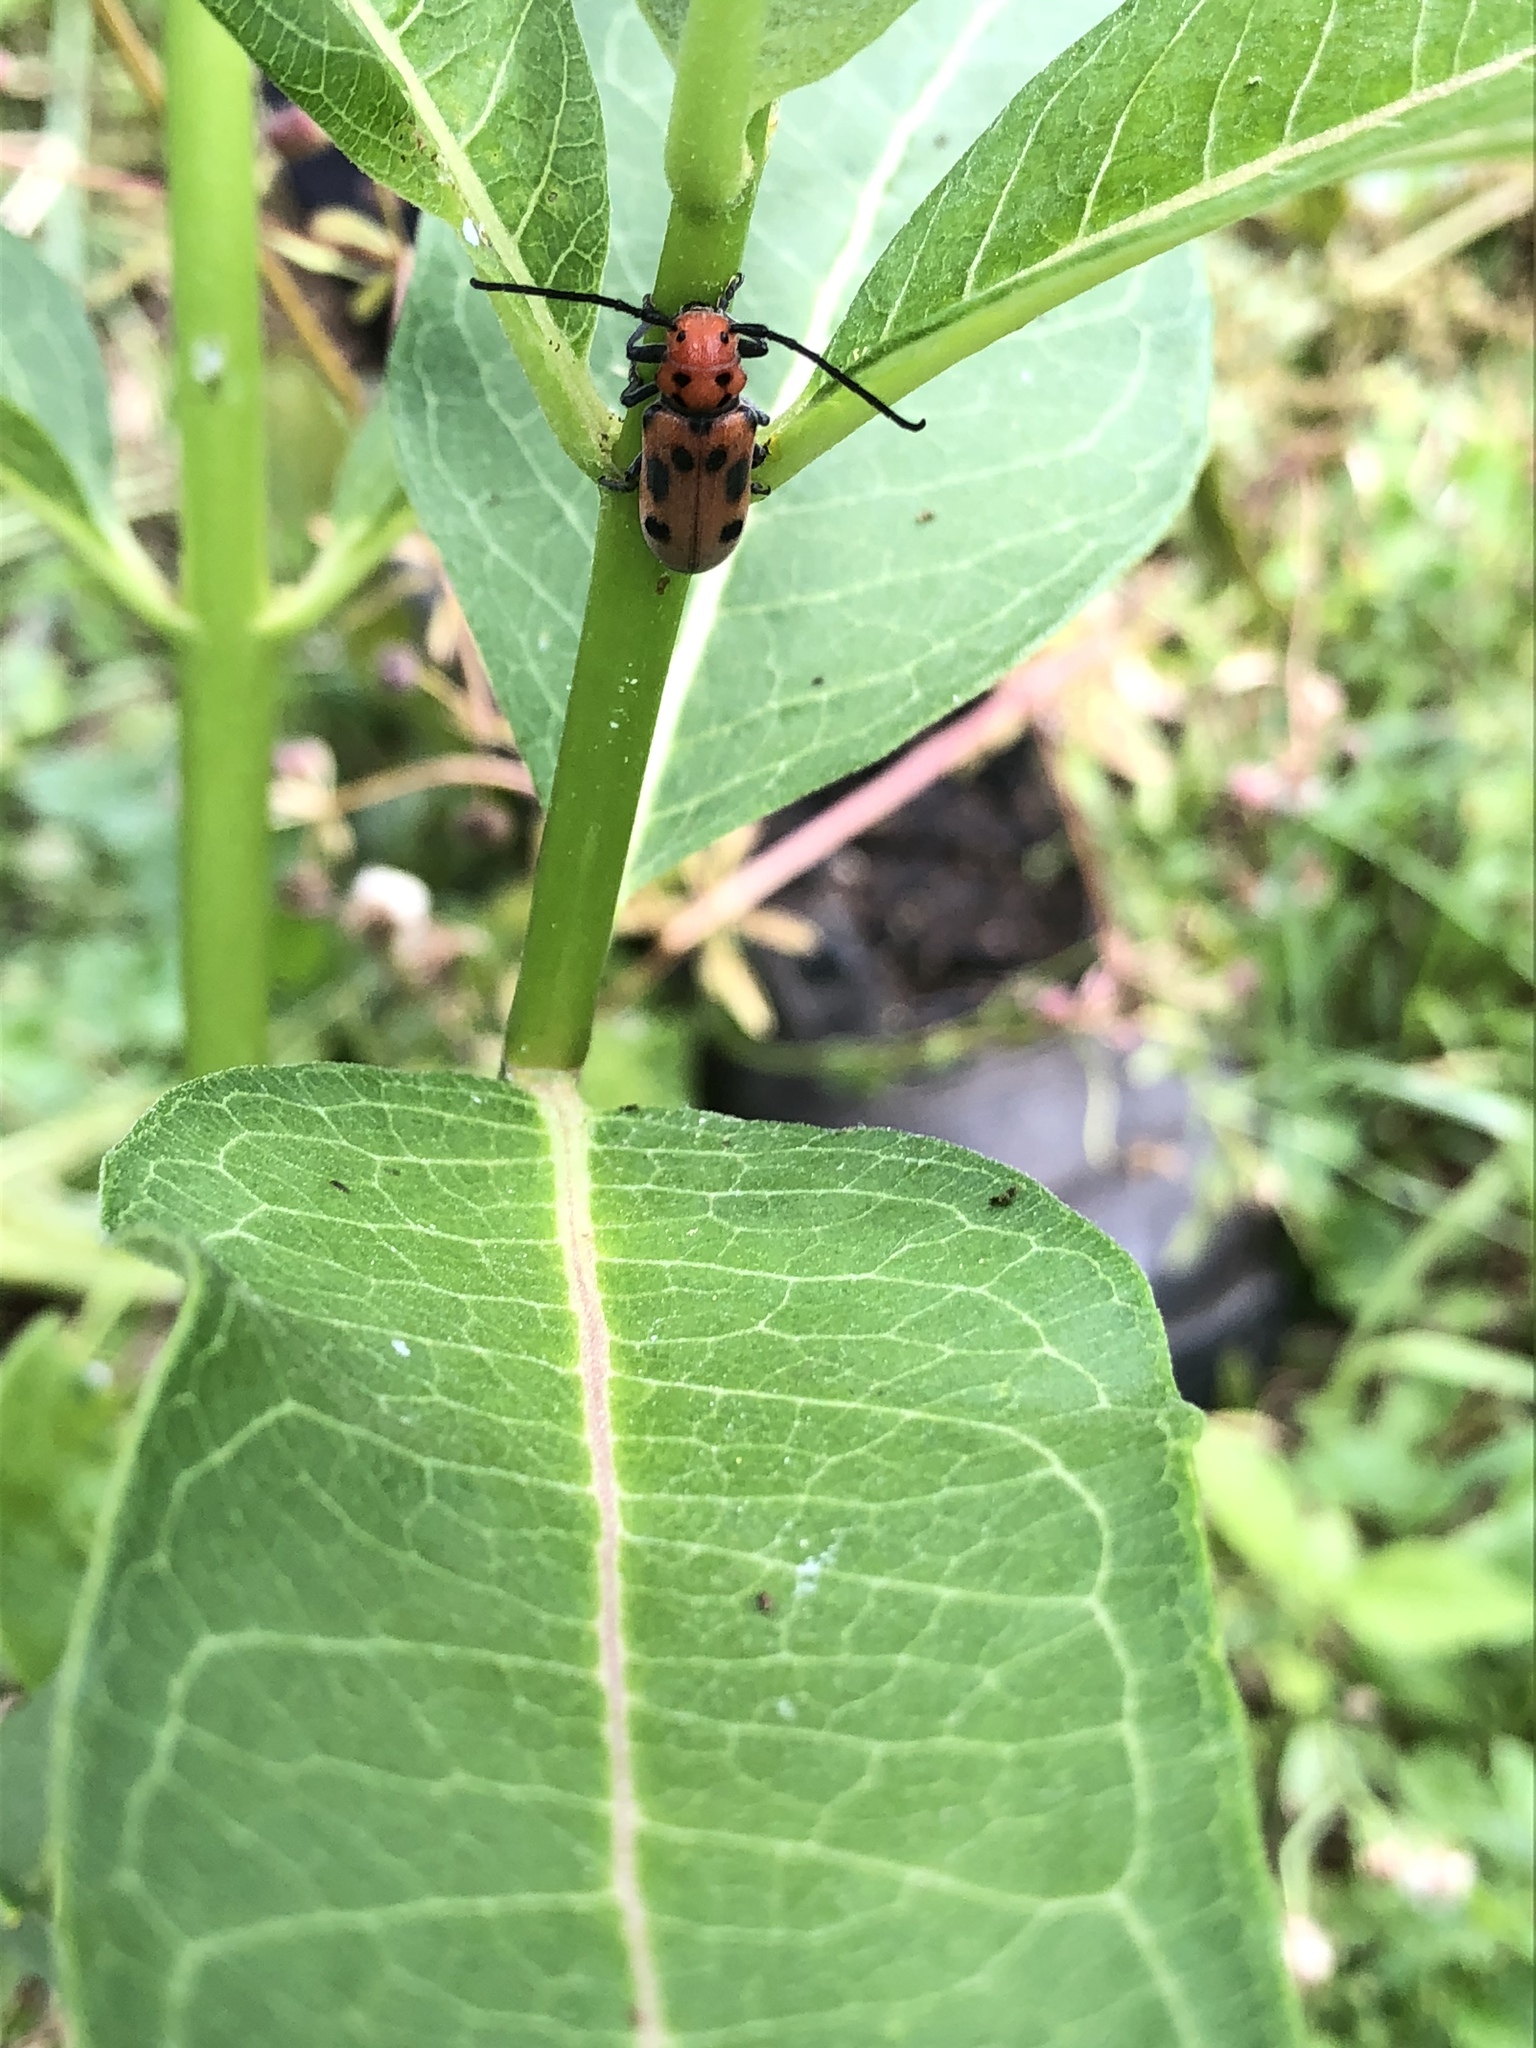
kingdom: Animalia
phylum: Arthropoda
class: Insecta
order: Coleoptera
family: Cerambycidae
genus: Tetraopes
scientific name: Tetraopes tetrophthalmus
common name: Red milkweed beetle
